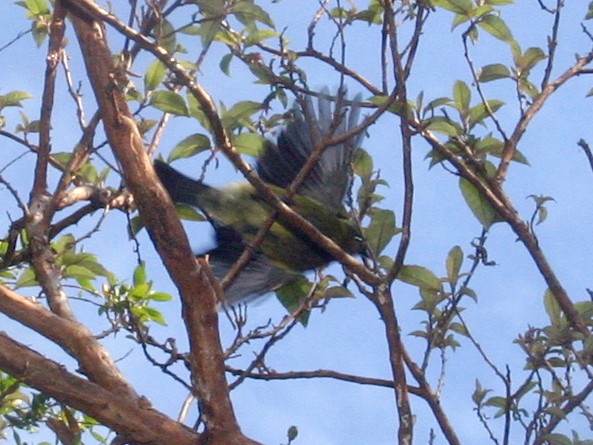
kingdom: Animalia
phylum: Chordata
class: Aves
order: Passeriformes
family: Meliphagidae
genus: Anthornis
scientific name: Anthornis melanura
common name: New zealand bellbird
